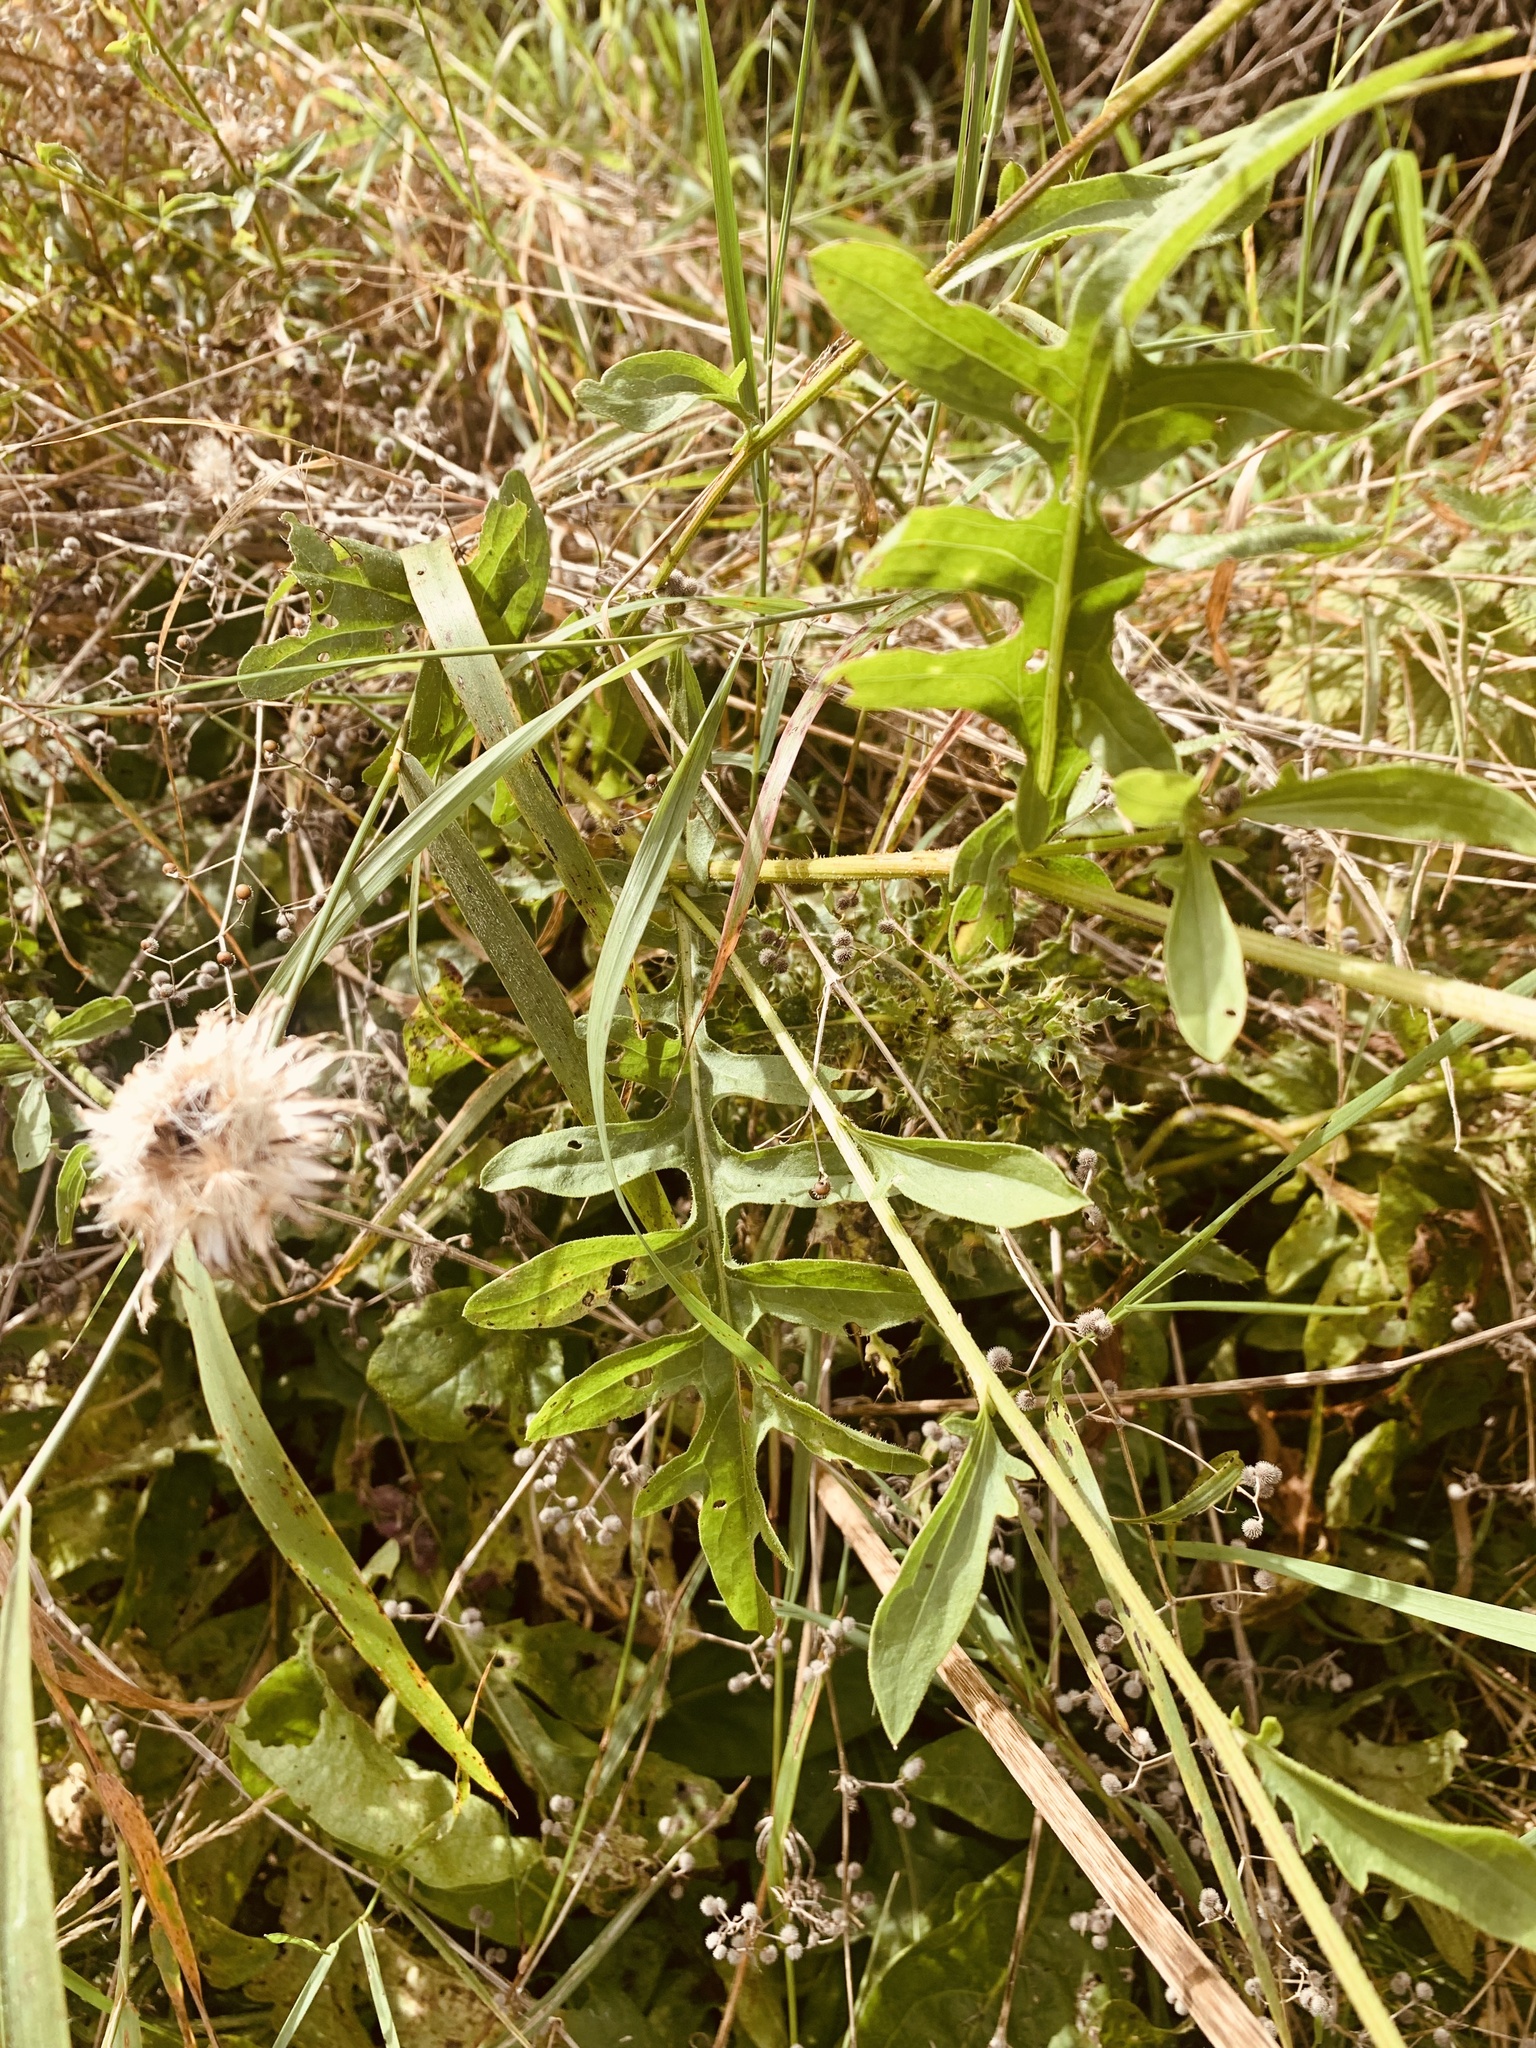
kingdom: Plantae
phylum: Tracheophyta
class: Magnoliopsida
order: Asterales
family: Asteraceae
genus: Centaurea
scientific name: Centaurea scabiosa
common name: Greater knapweed
